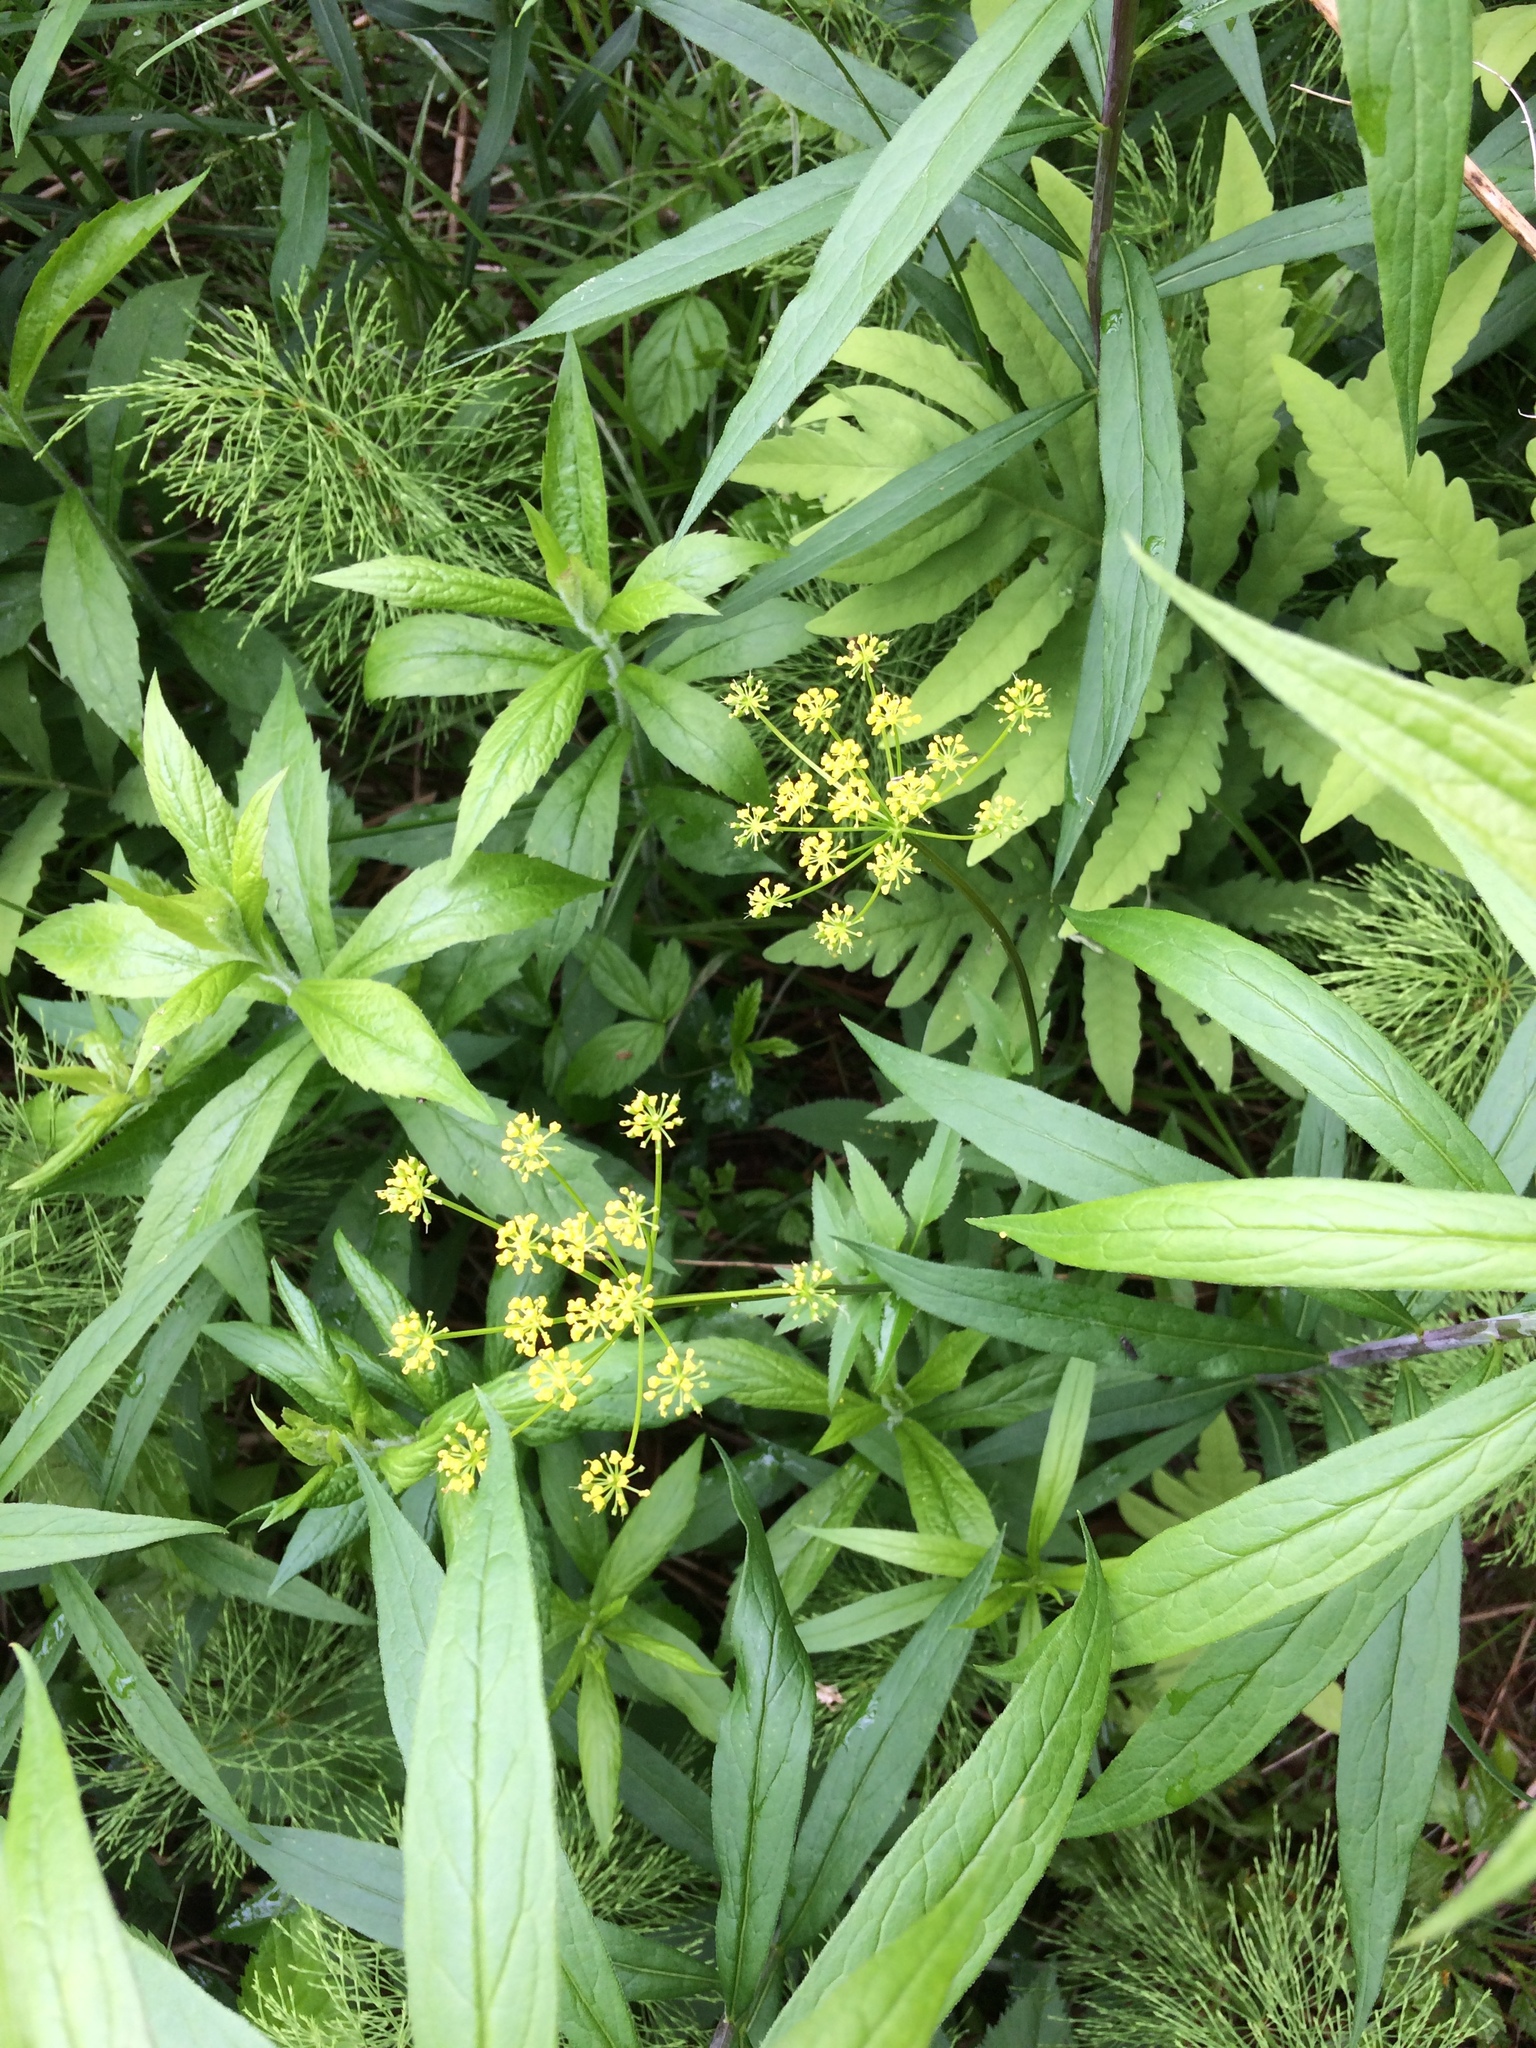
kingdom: Plantae
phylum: Tracheophyta
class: Magnoliopsida
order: Apiales
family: Apiaceae
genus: Zizia
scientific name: Zizia aurea
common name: Golden alexanders
